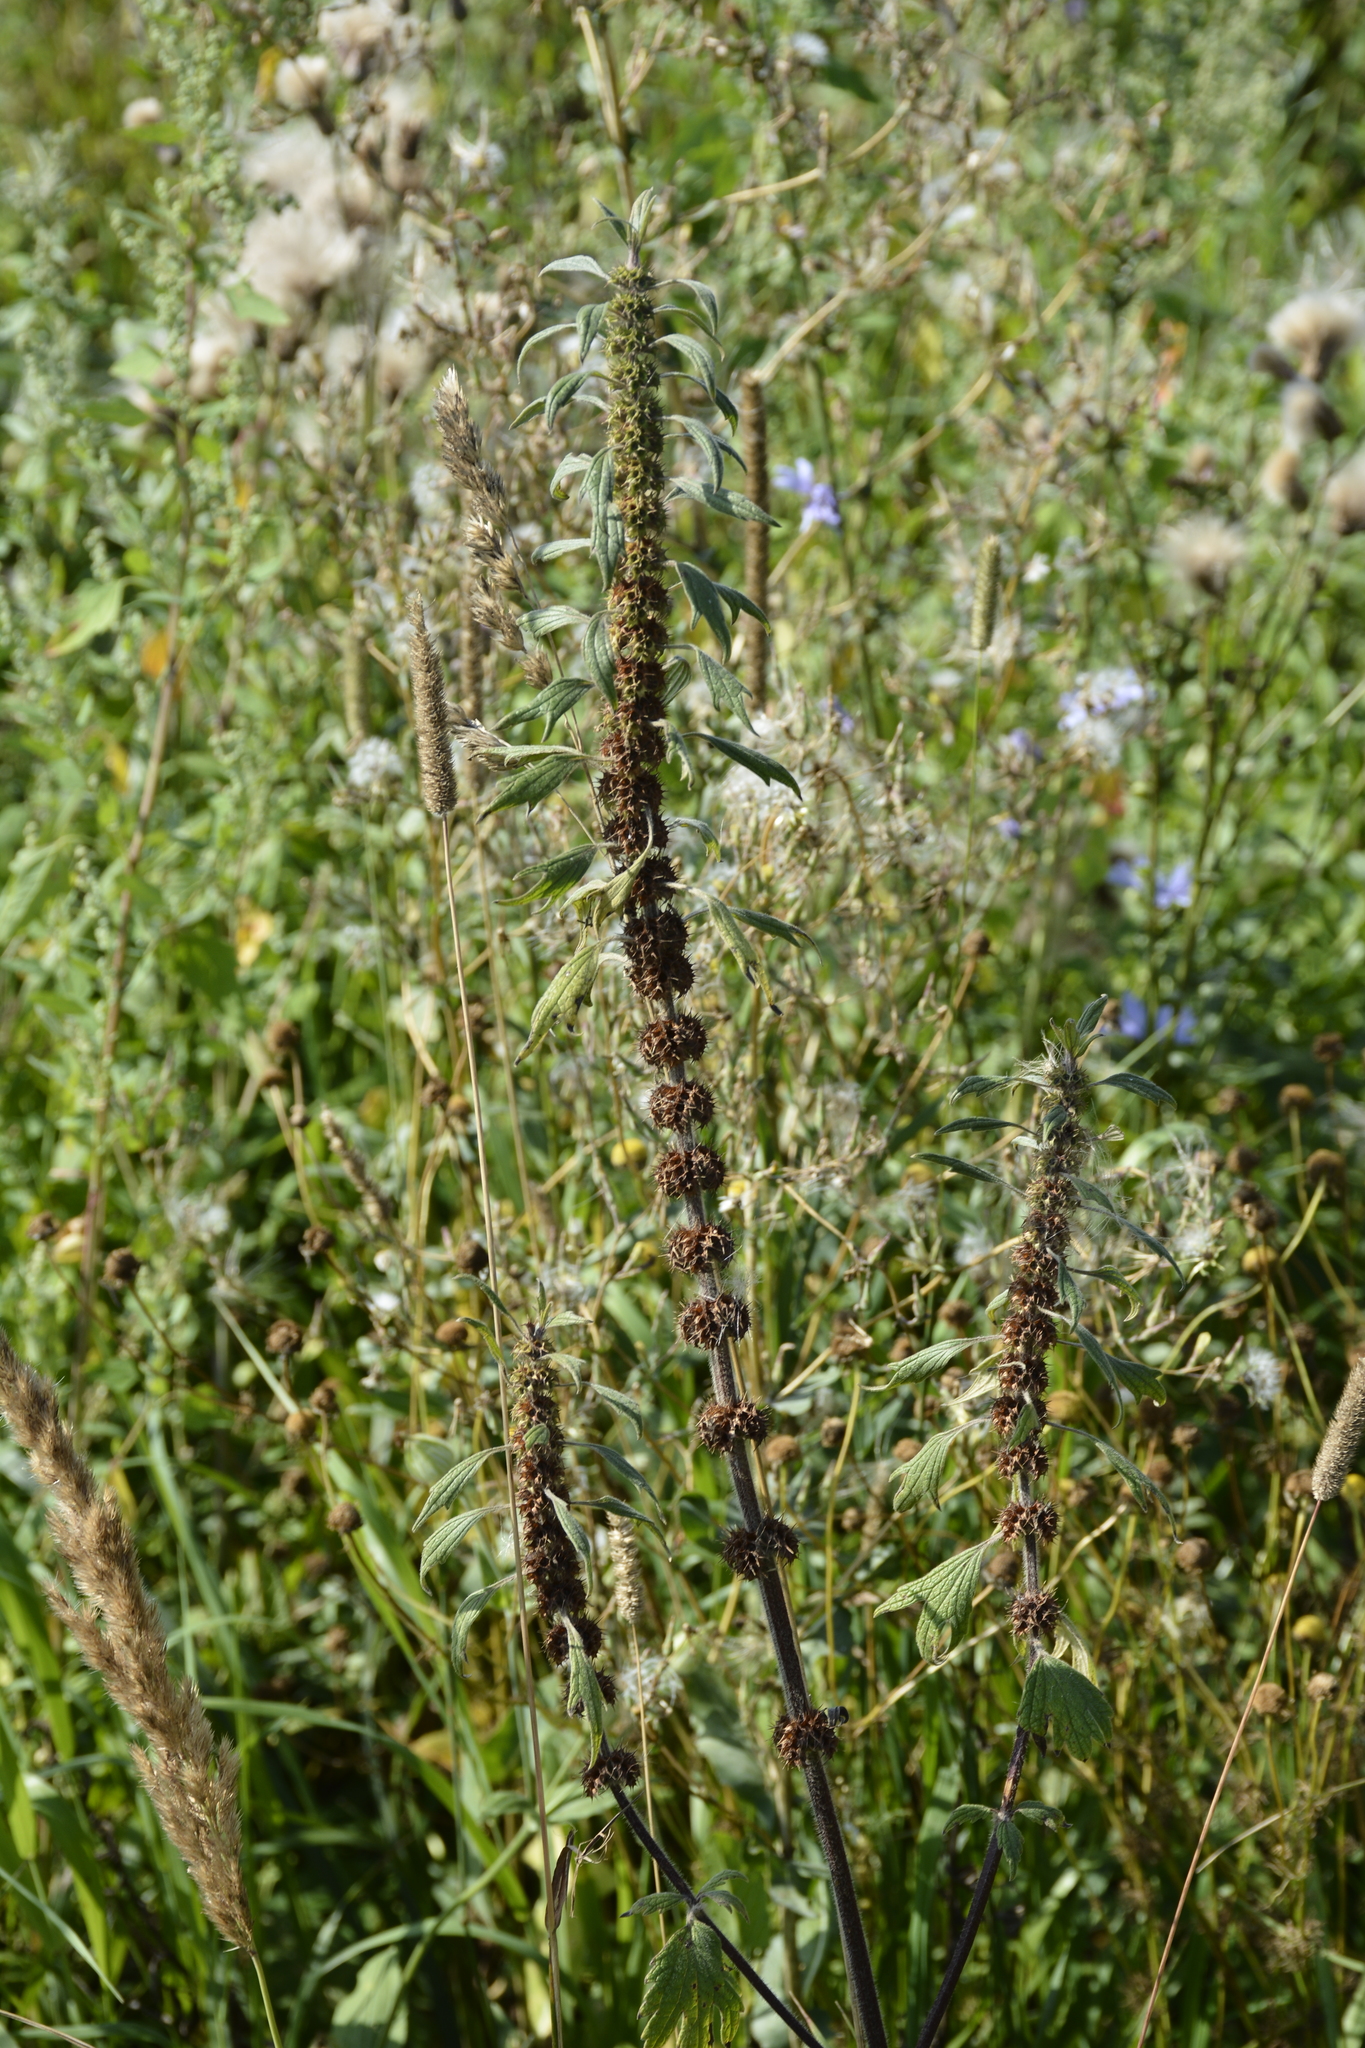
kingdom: Plantae
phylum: Tracheophyta
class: Magnoliopsida
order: Lamiales
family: Lamiaceae
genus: Leonurus
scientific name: Leonurus quinquelobatus
